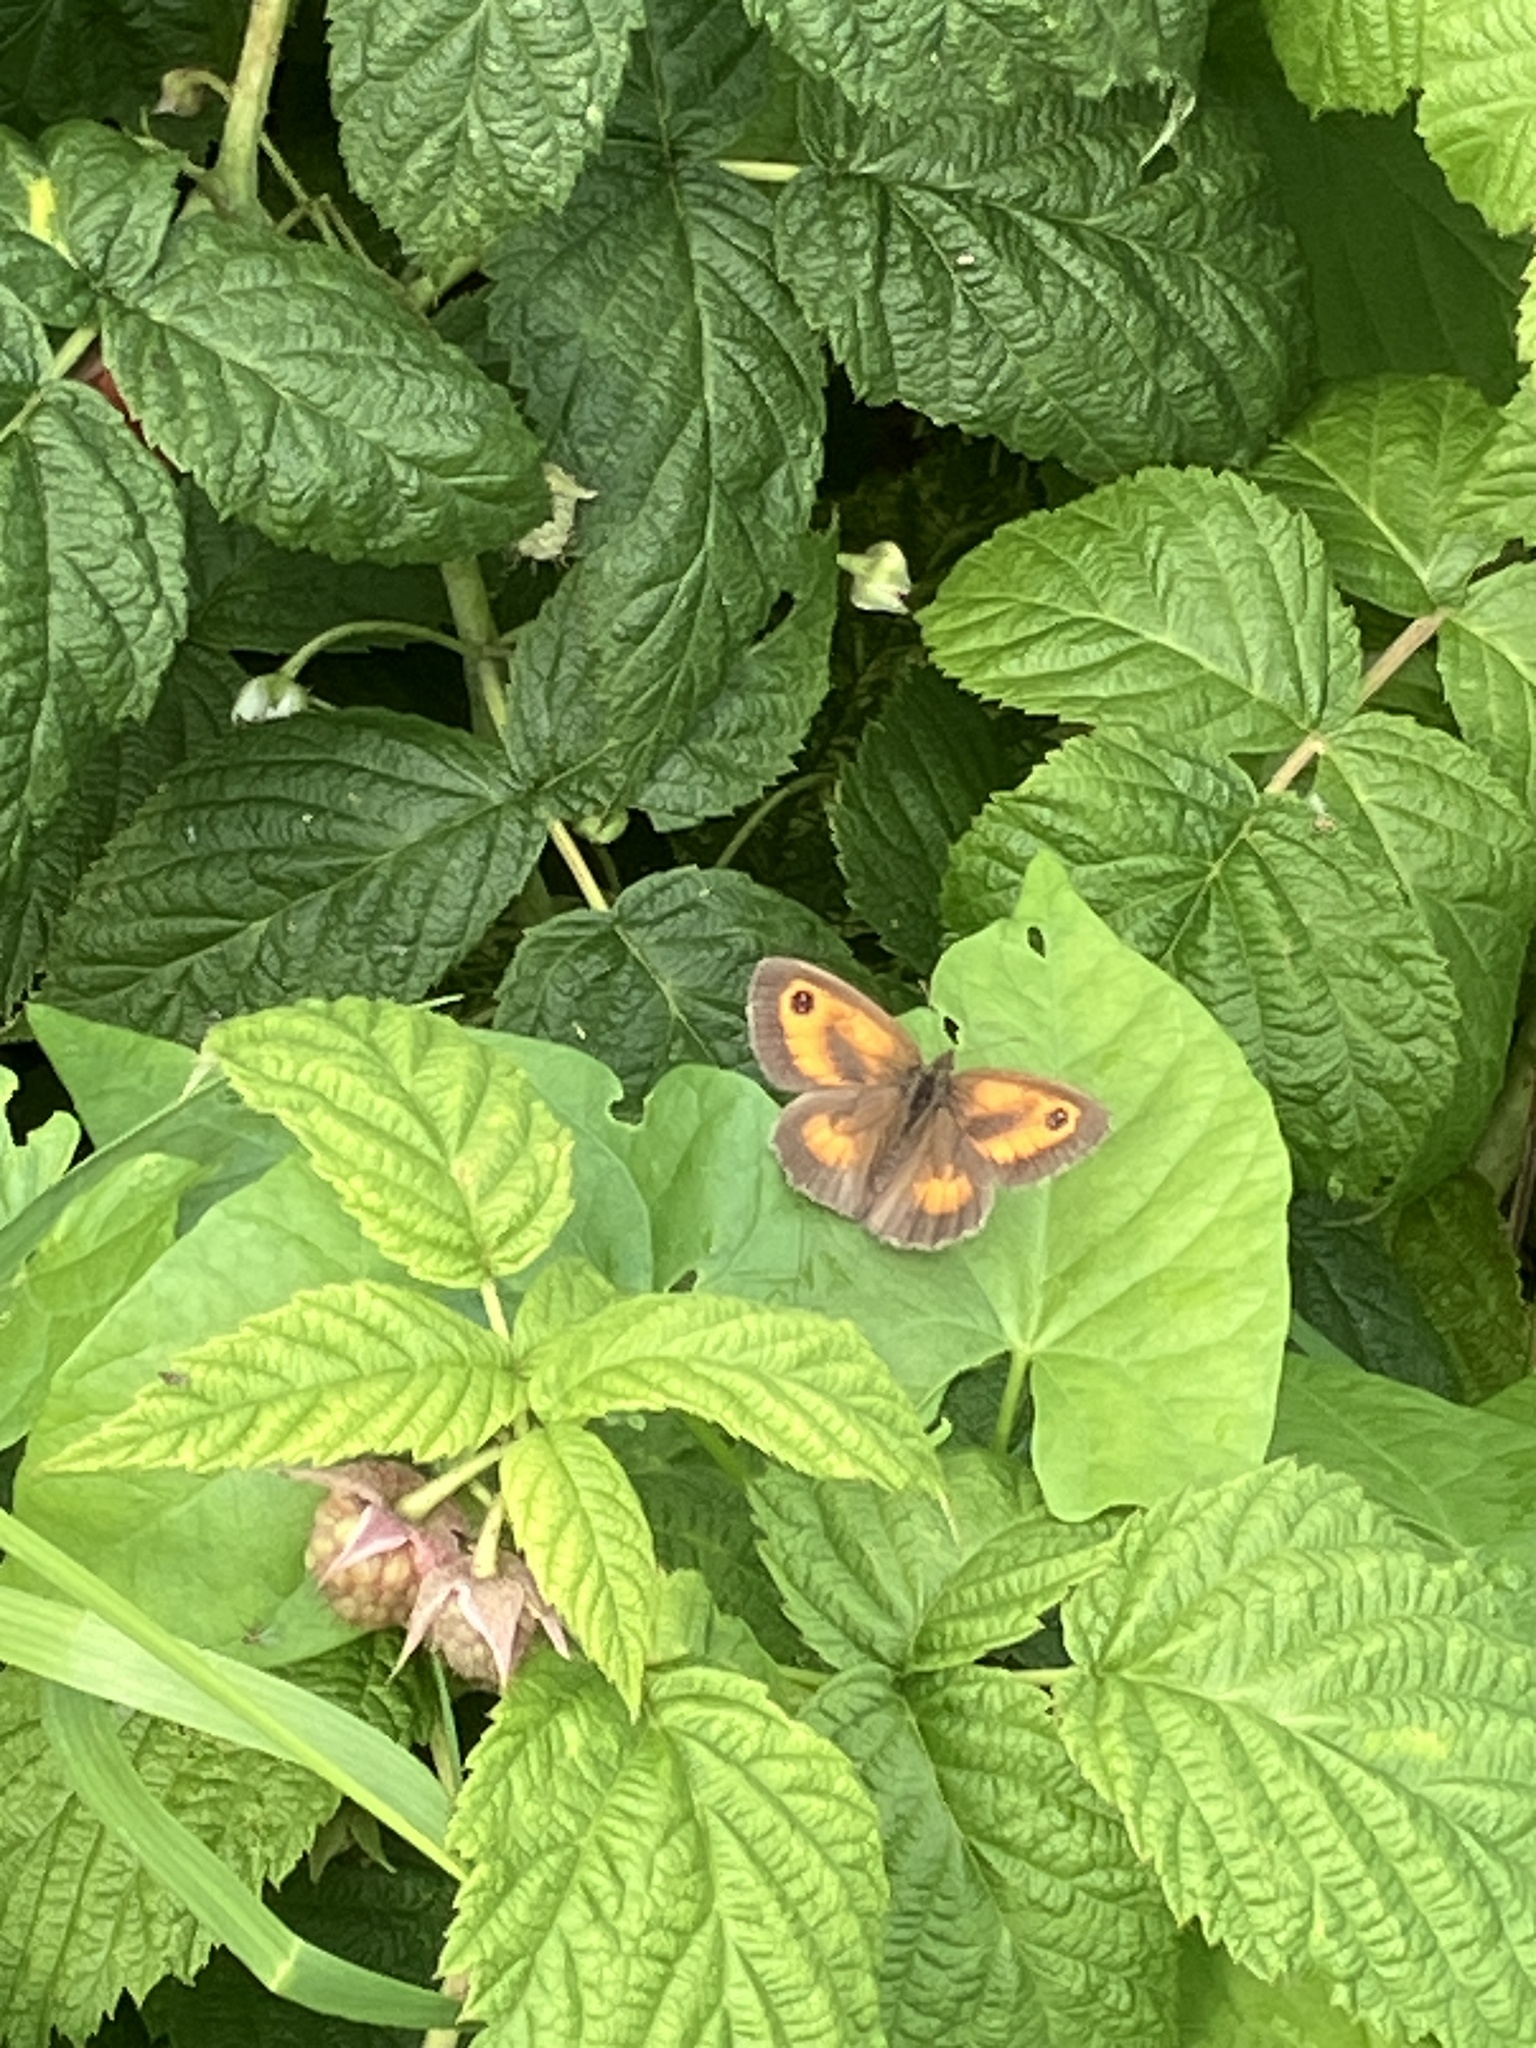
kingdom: Animalia
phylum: Arthropoda
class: Insecta
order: Lepidoptera
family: Nymphalidae
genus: Pyronia
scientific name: Pyronia tithonus
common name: Gatekeeper
